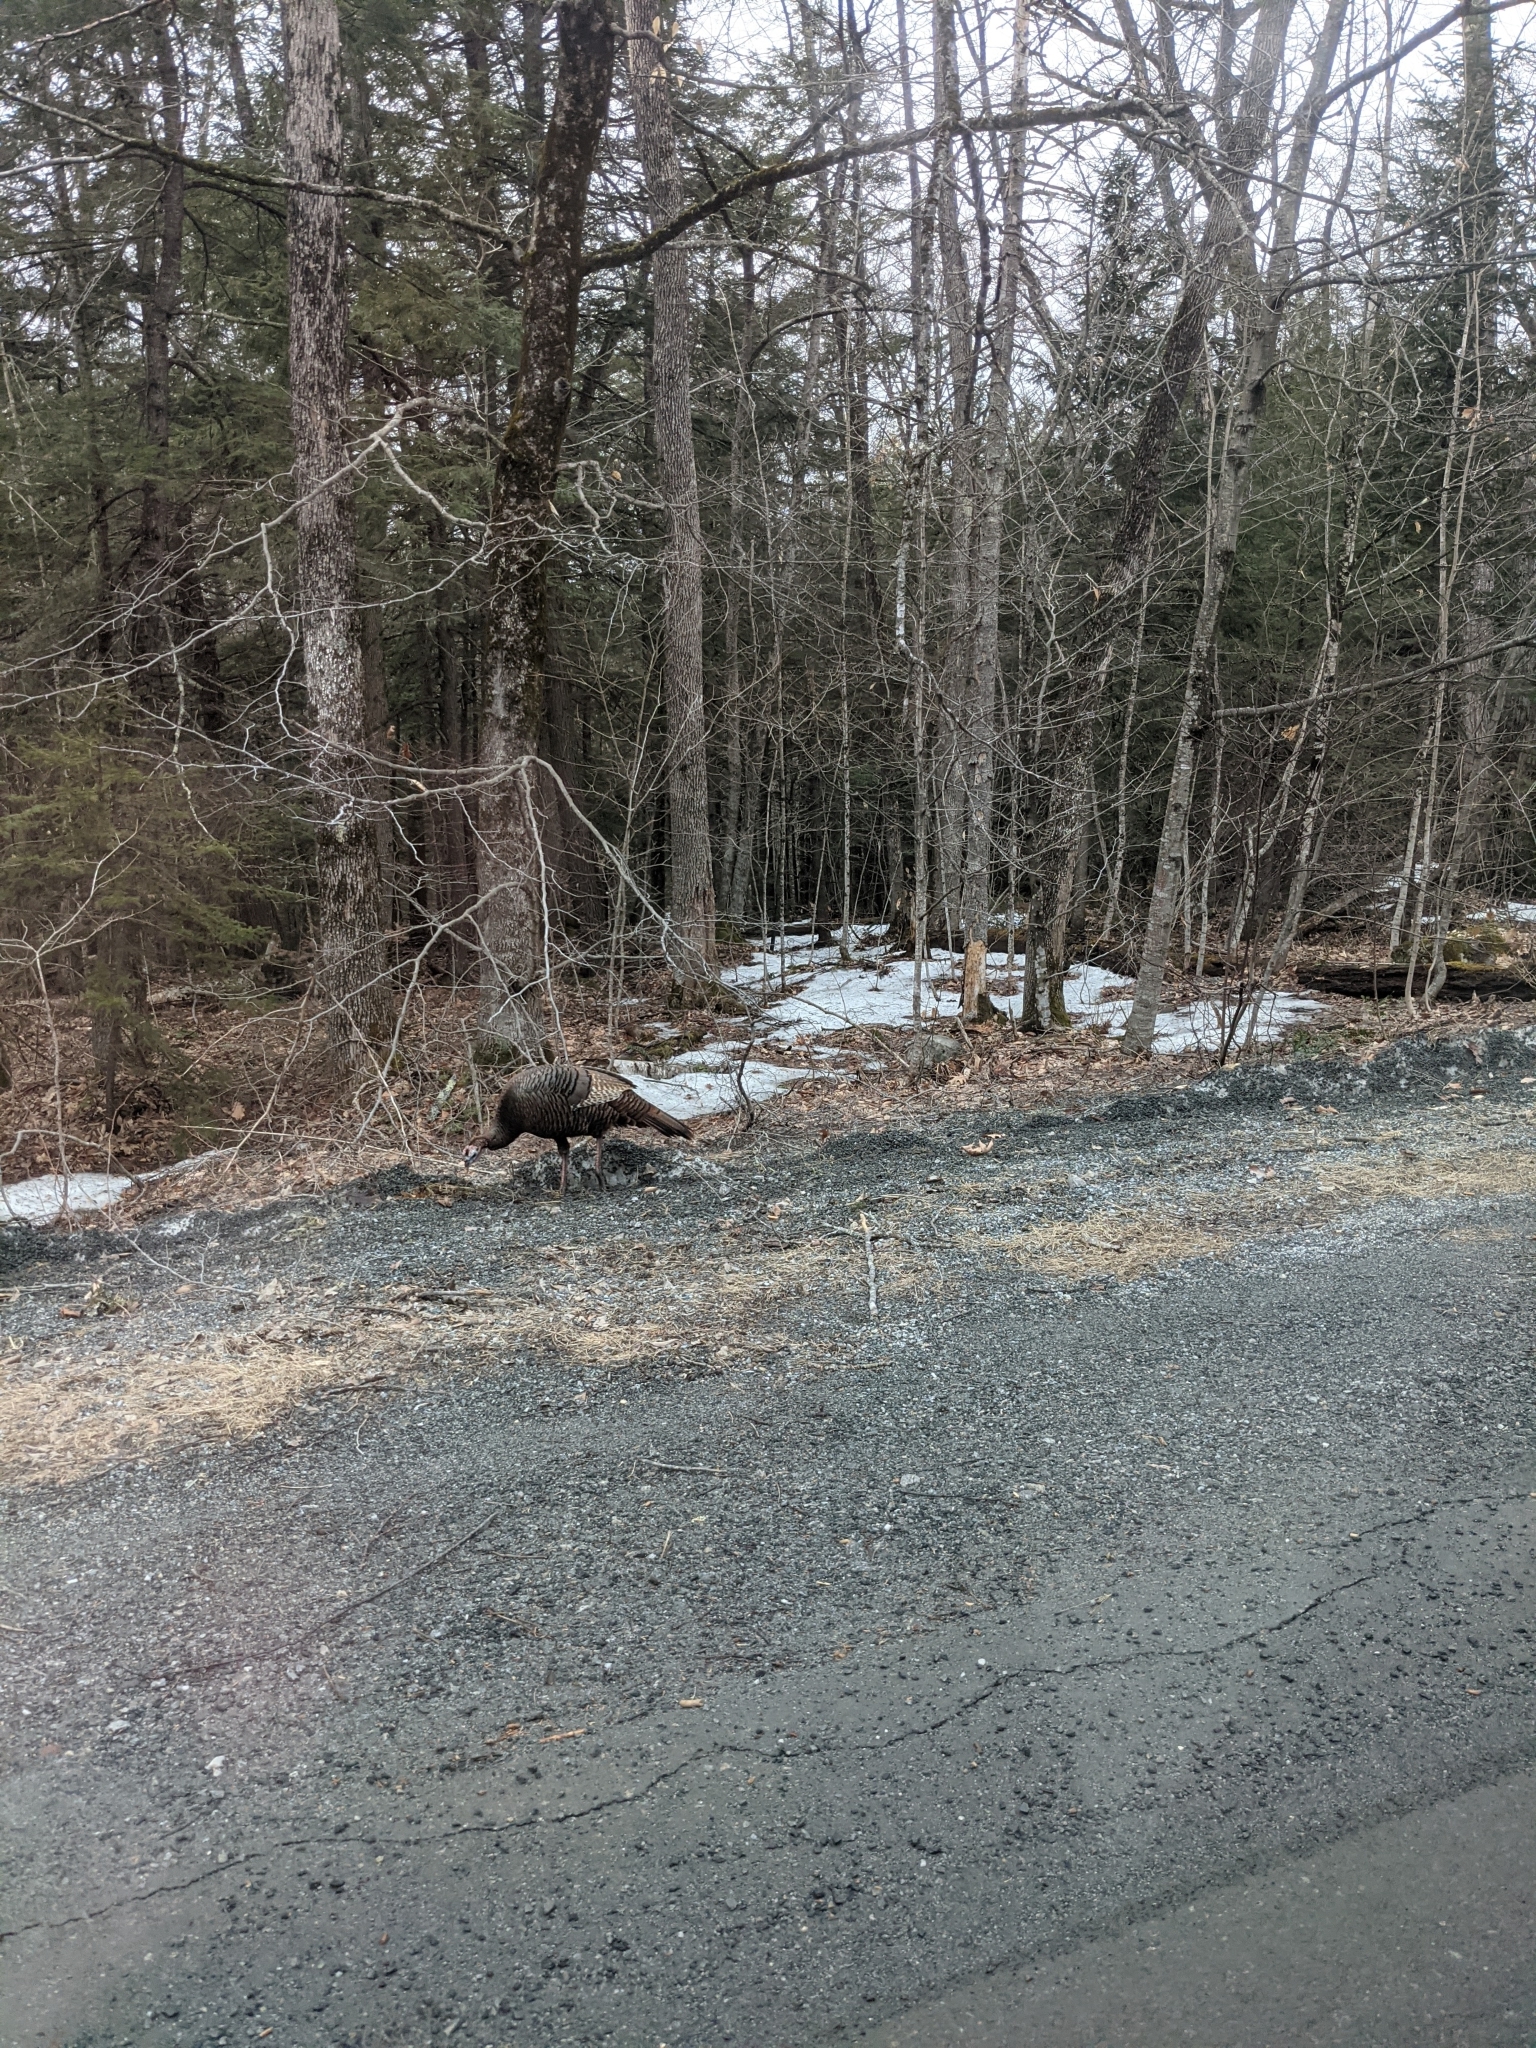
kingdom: Animalia
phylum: Chordata
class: Aves
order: Galliformes
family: Phasianidae
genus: Meleagris
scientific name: Meleagris gallopavo
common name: Wild turkey
